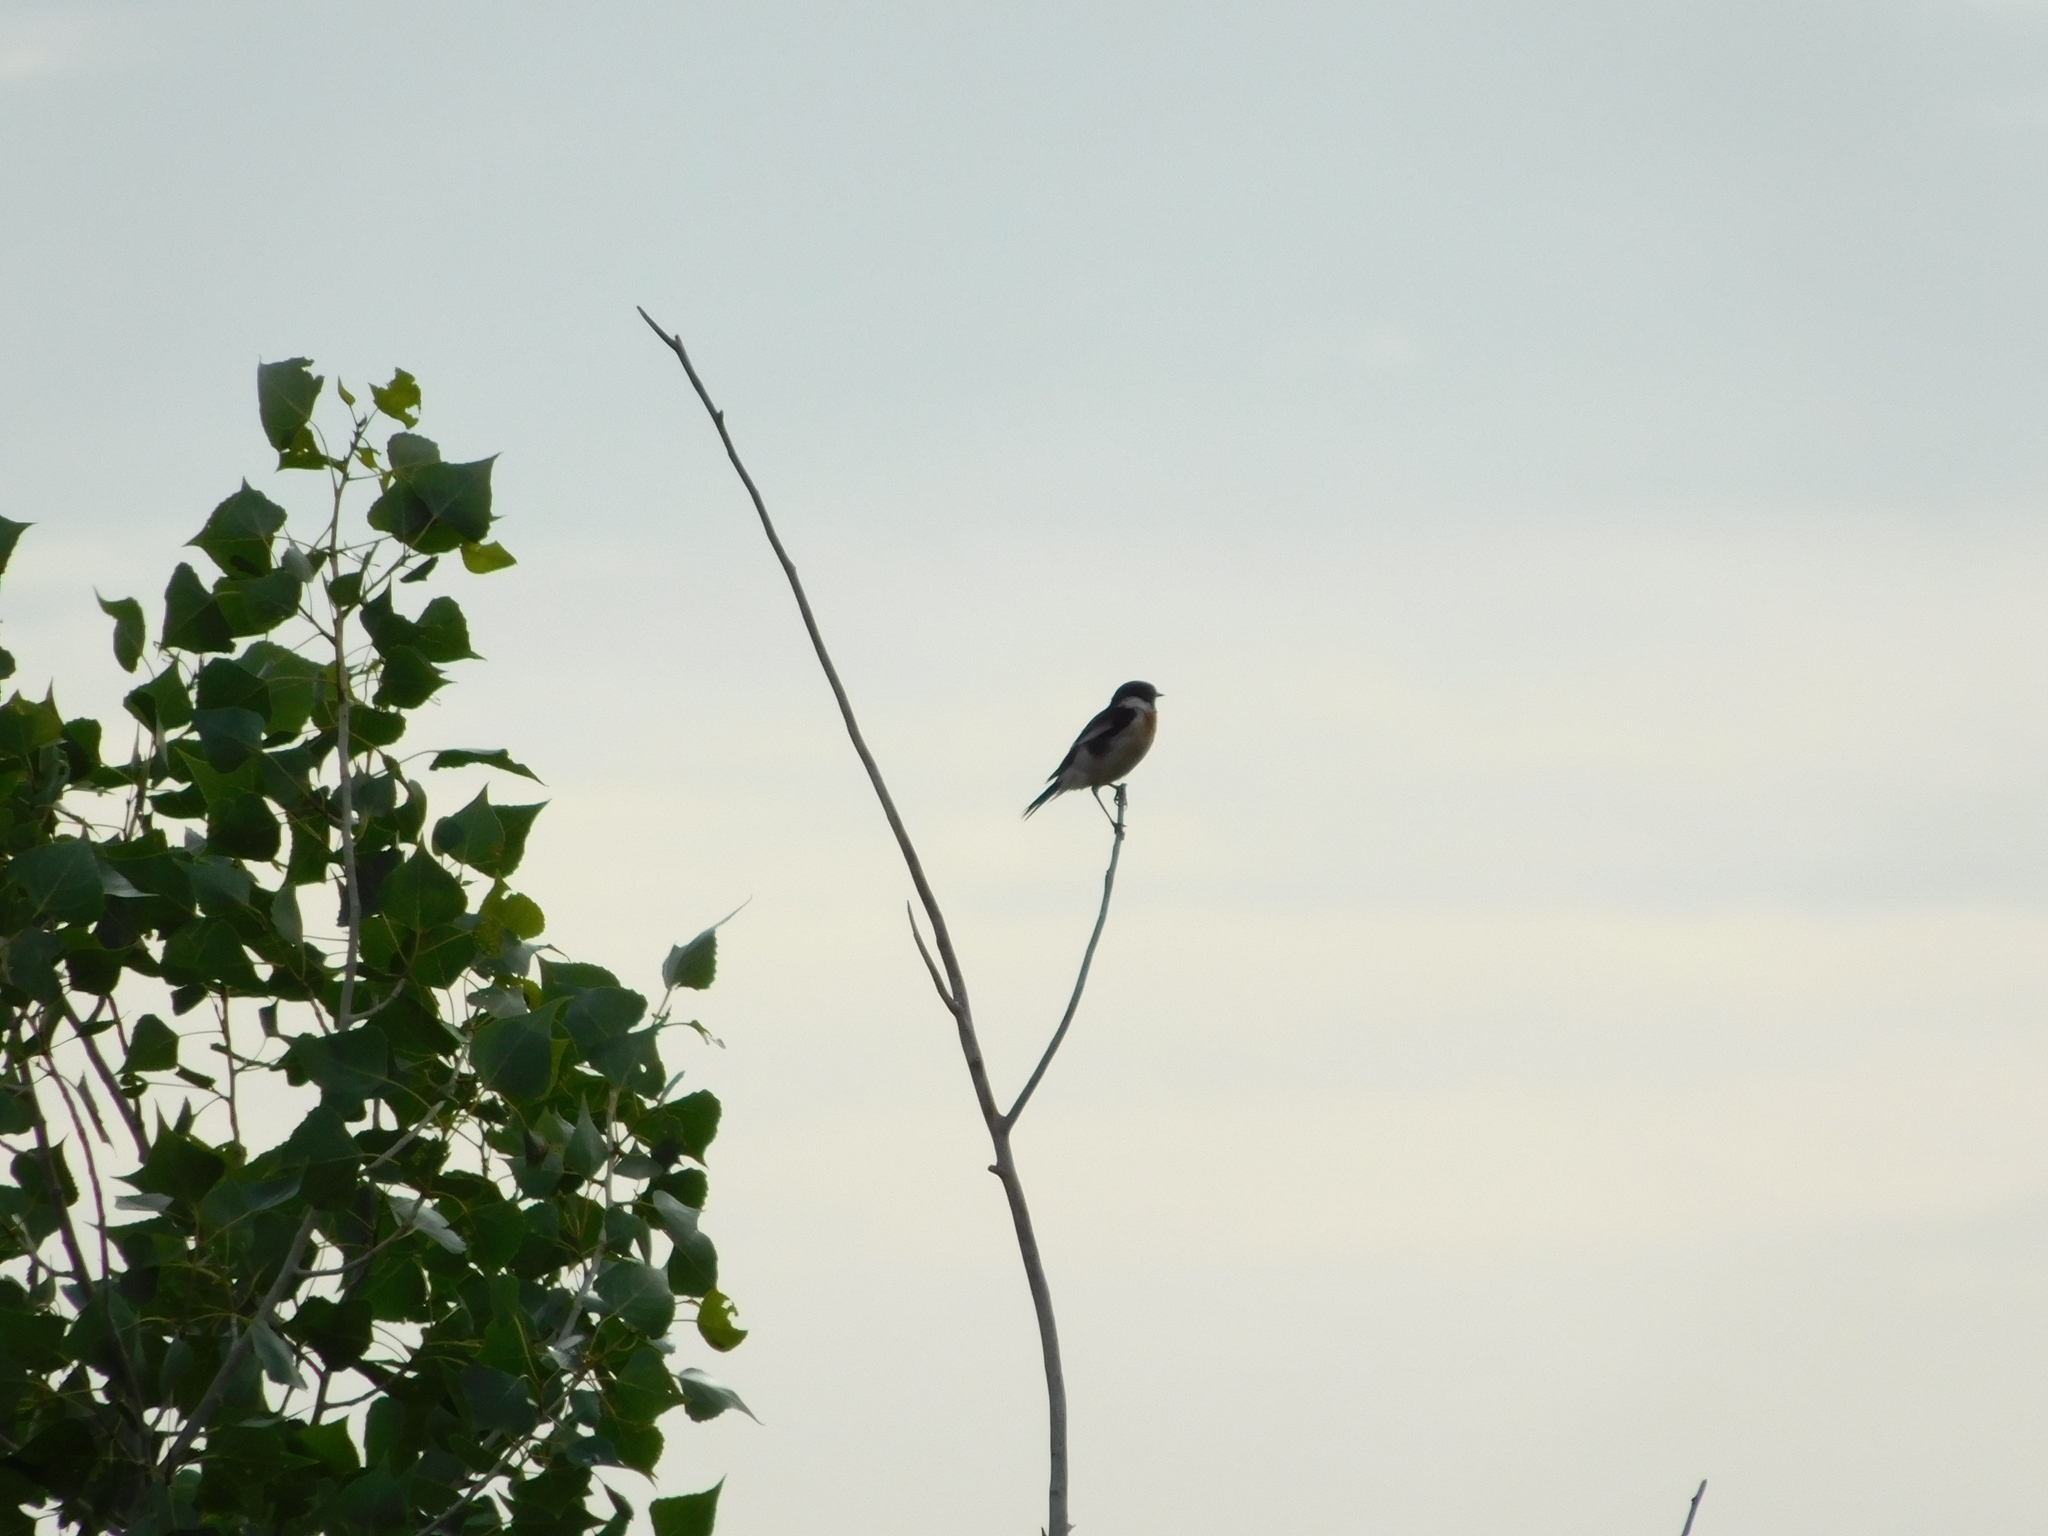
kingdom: Animalia
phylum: Chordata
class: Aves
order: Passeriformes
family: Muscicapidae
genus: Saxicola
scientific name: Saxicola maurus
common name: Siberian stonechat
